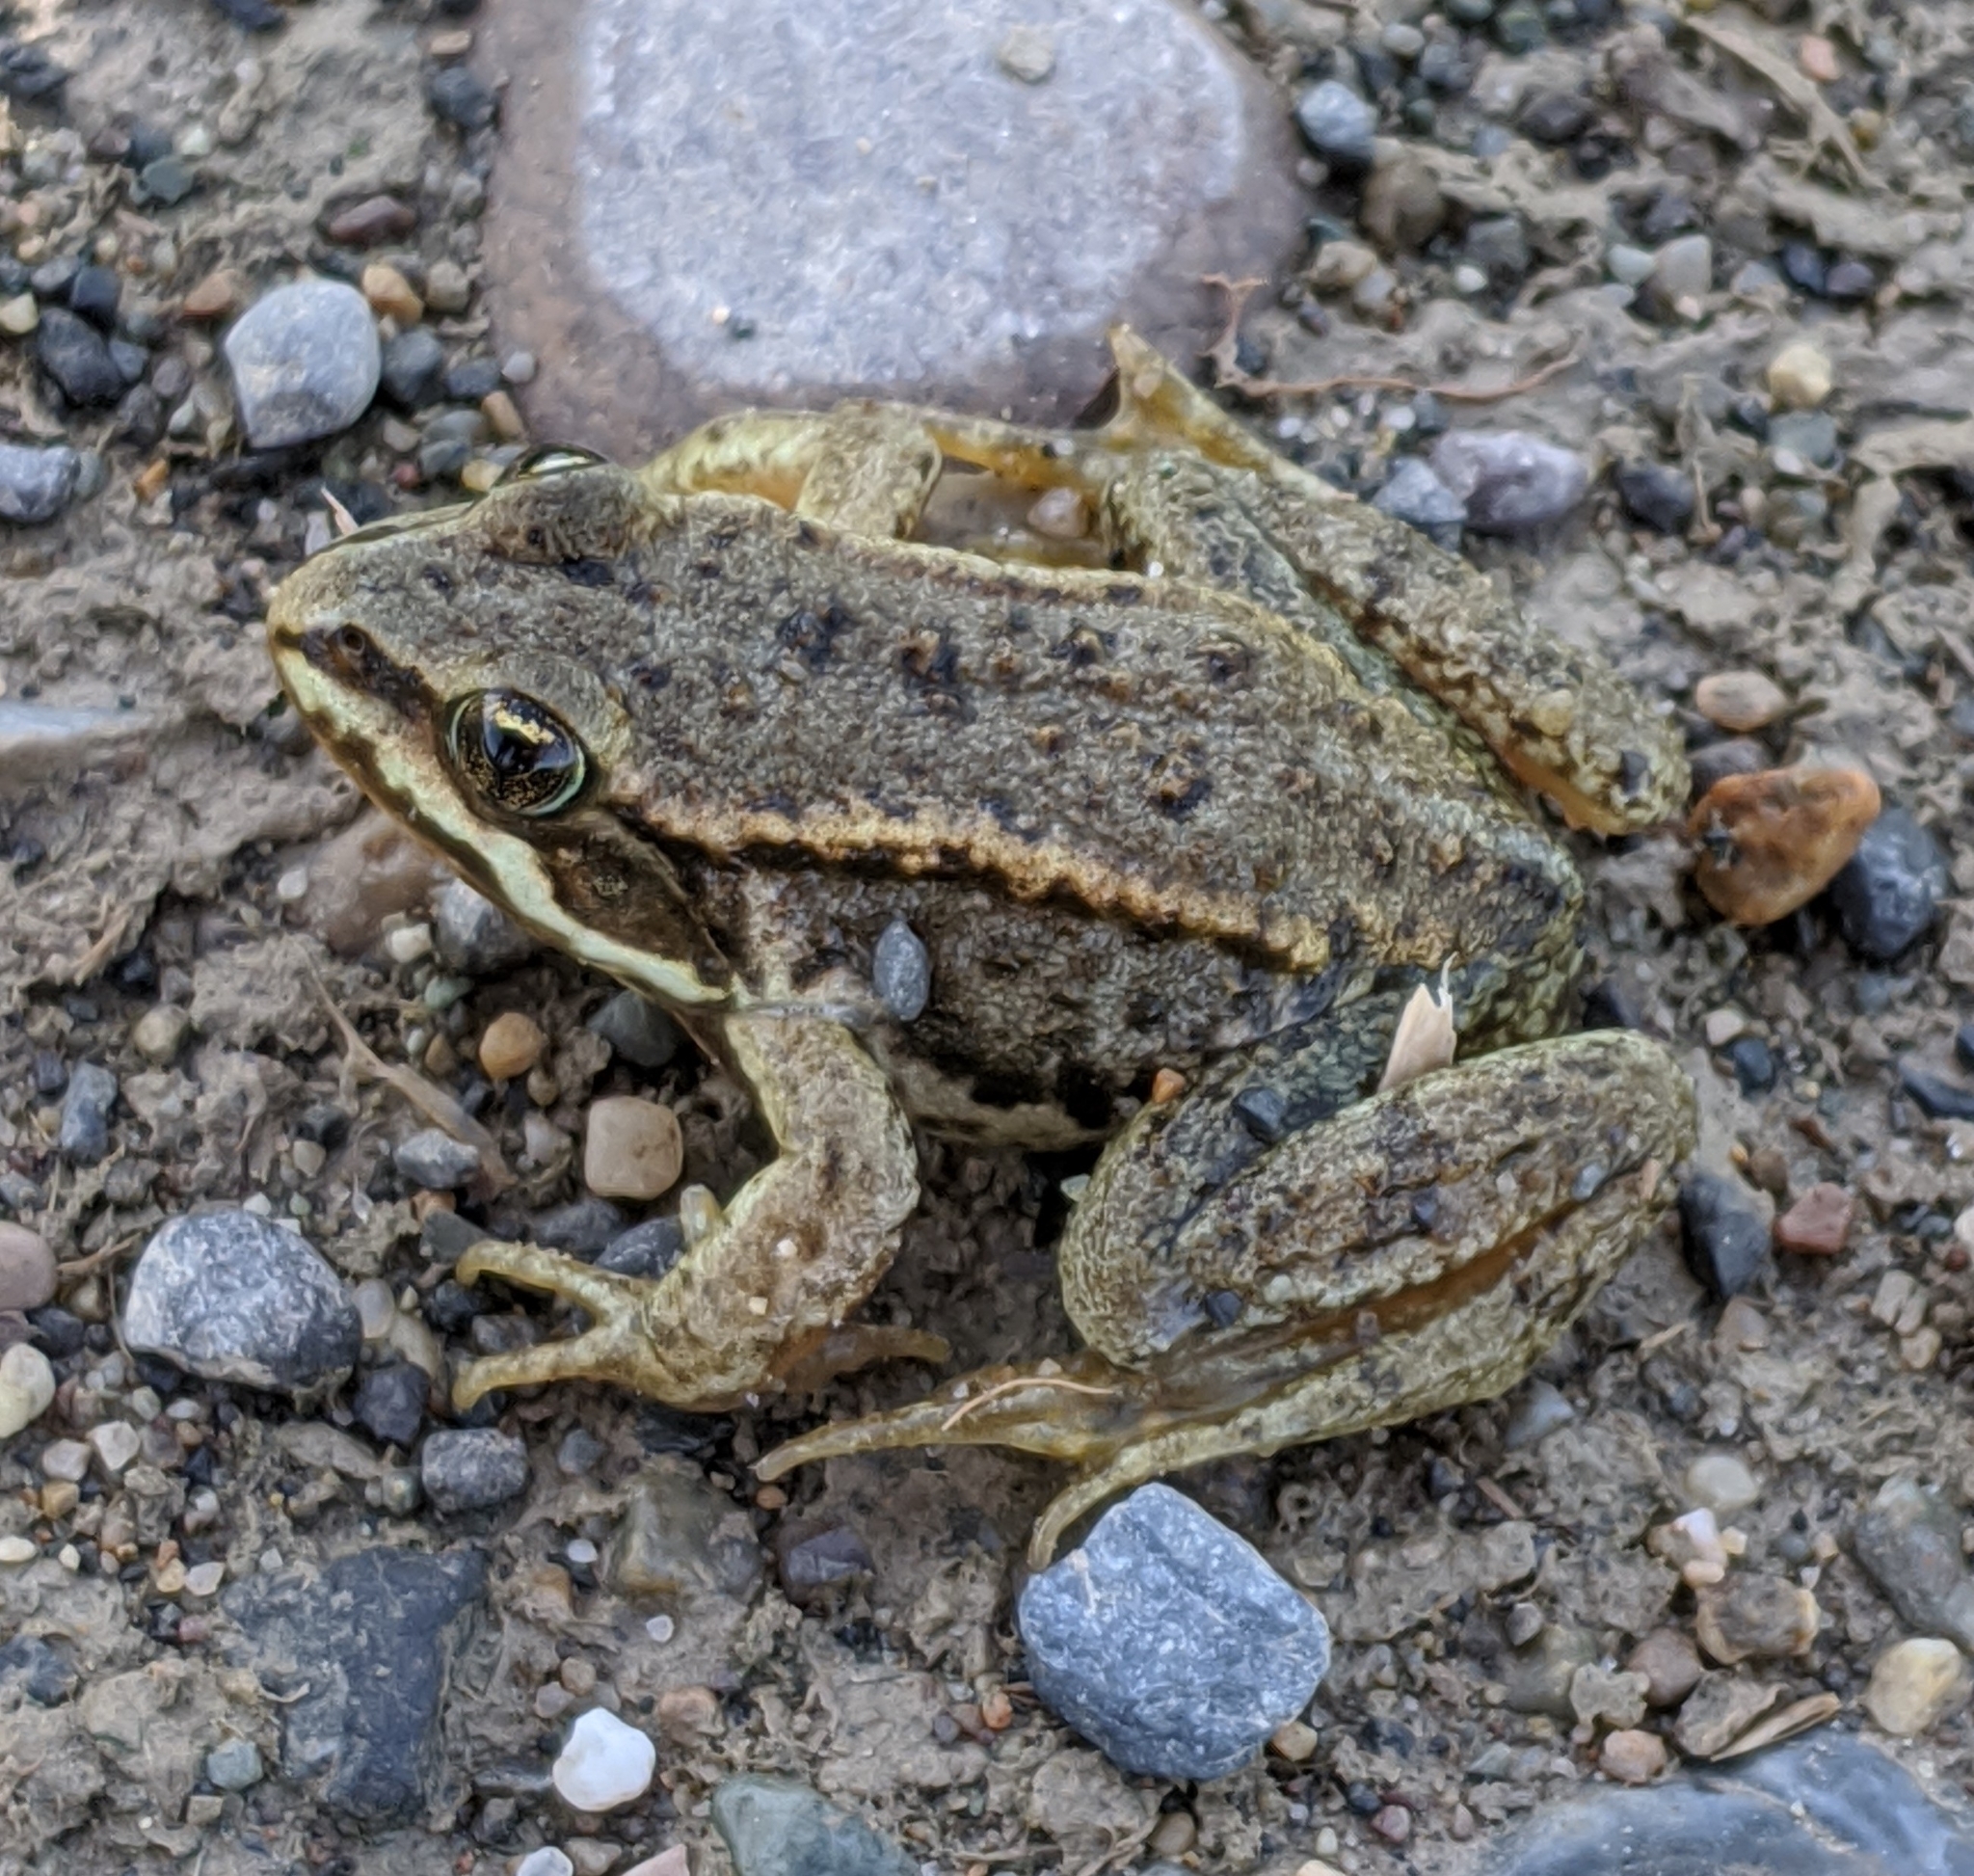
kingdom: Animalia
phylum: Chordata
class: Amphibia
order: Anura
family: Ranidae
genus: Rana
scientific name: Rana luteiventris
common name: Columbia spotted frog
